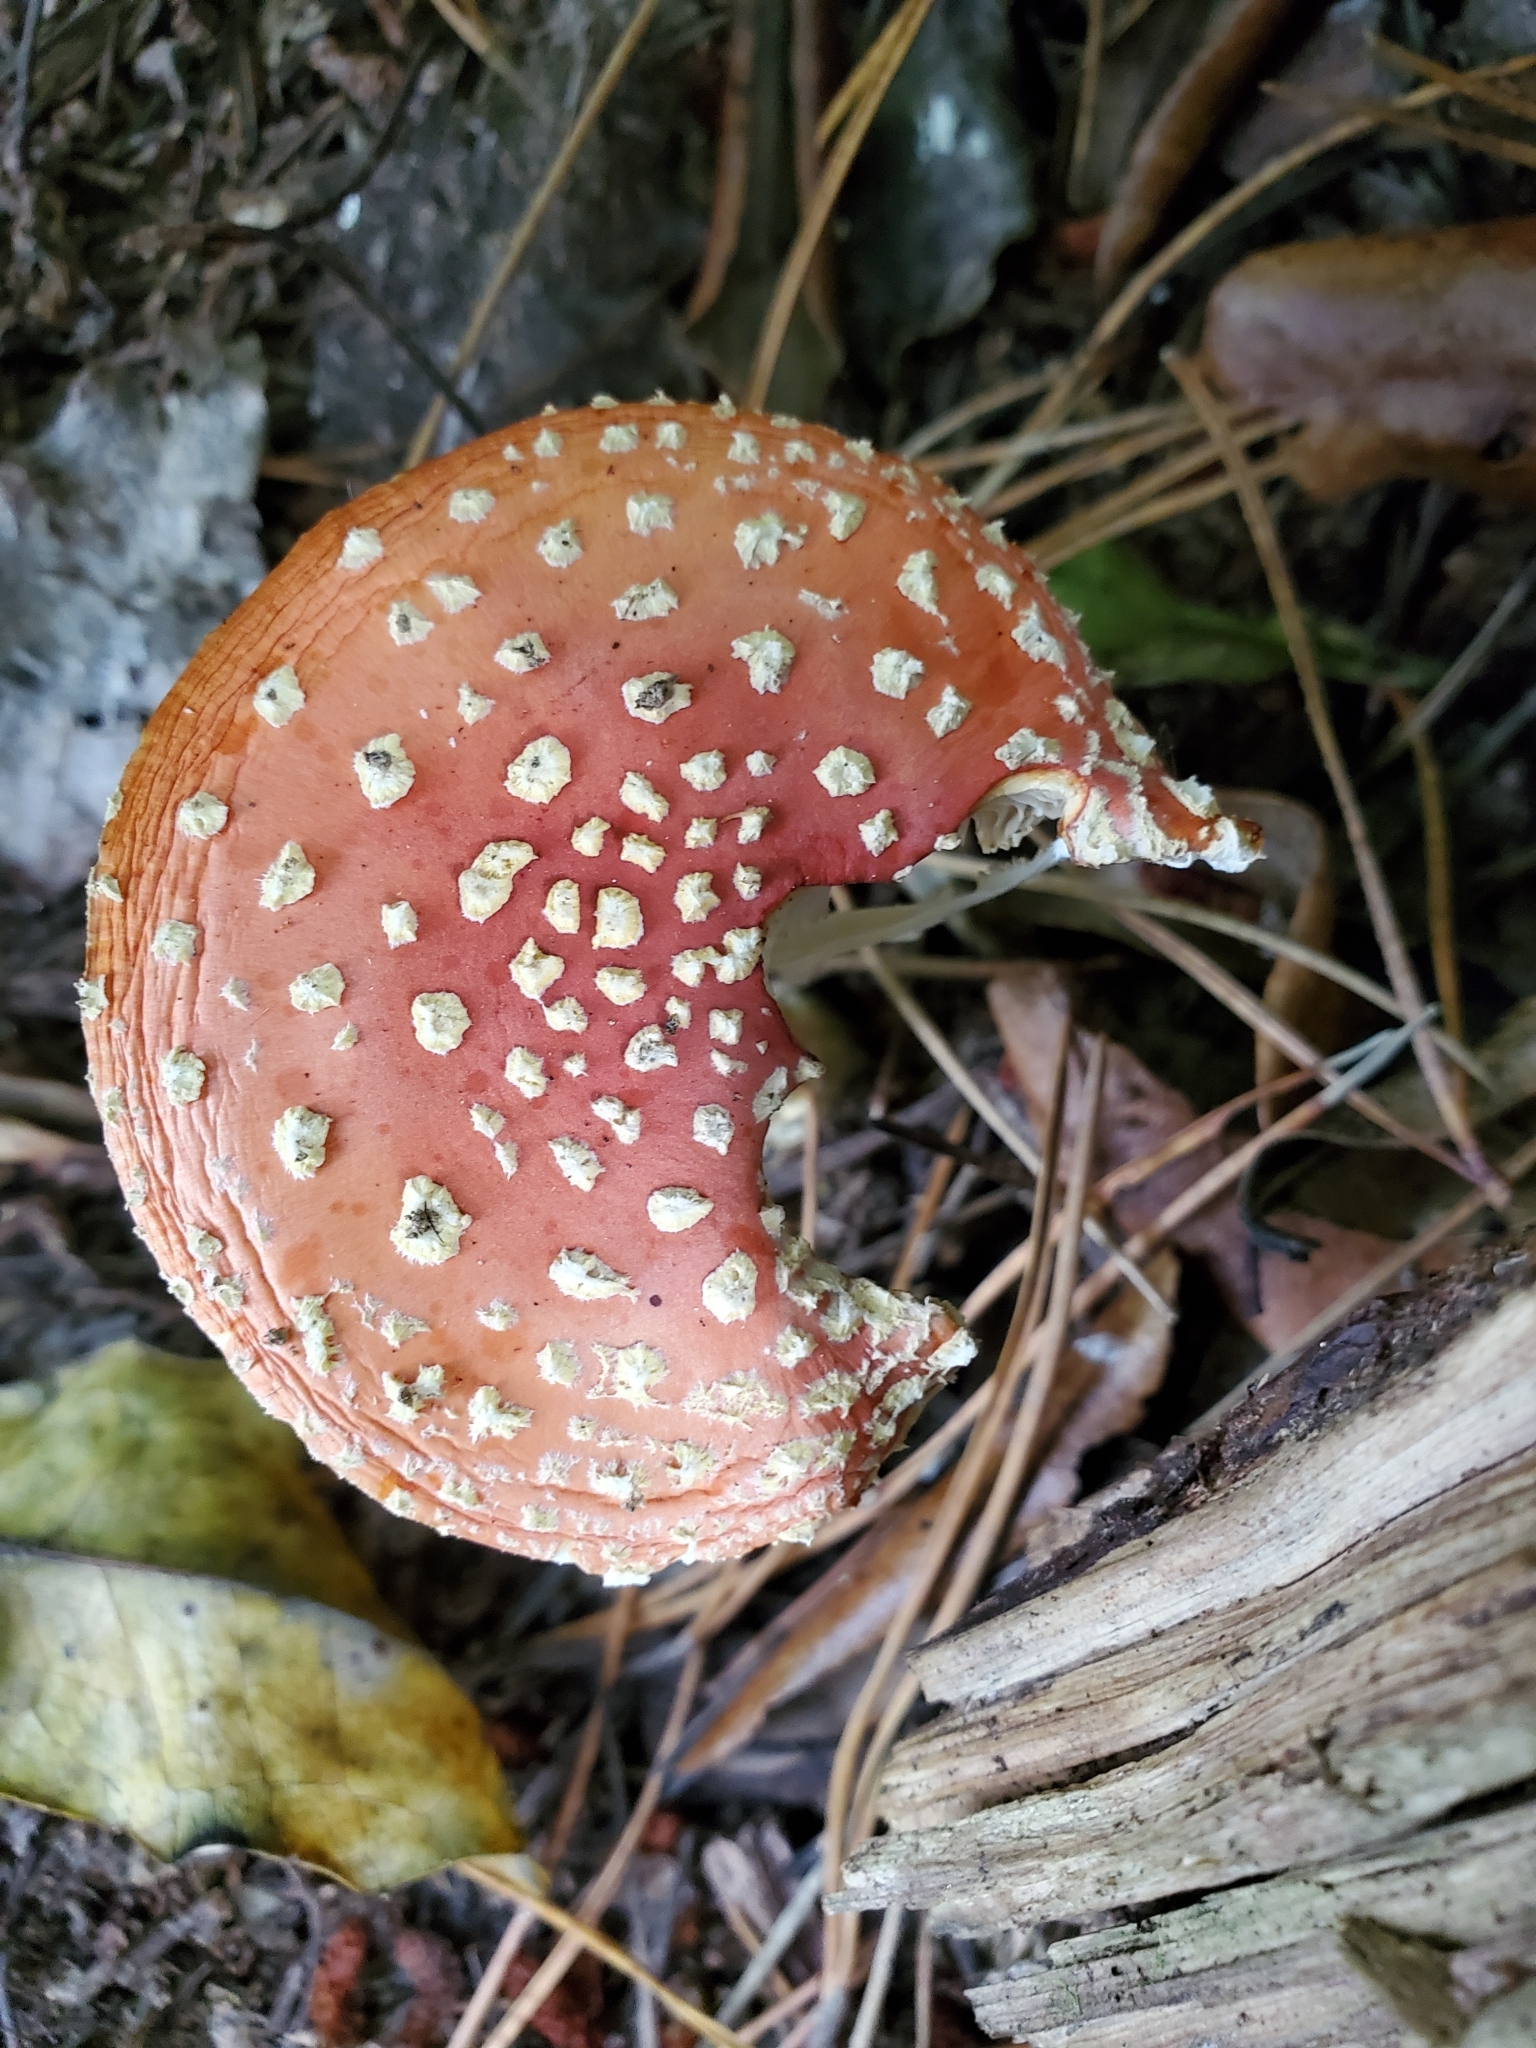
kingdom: Fungi
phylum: Basidiomycota
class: Agaricomycetes
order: Agaricales
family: Amanitaceae
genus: Amanita
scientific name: Amanita muscaria
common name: Fly agaric
